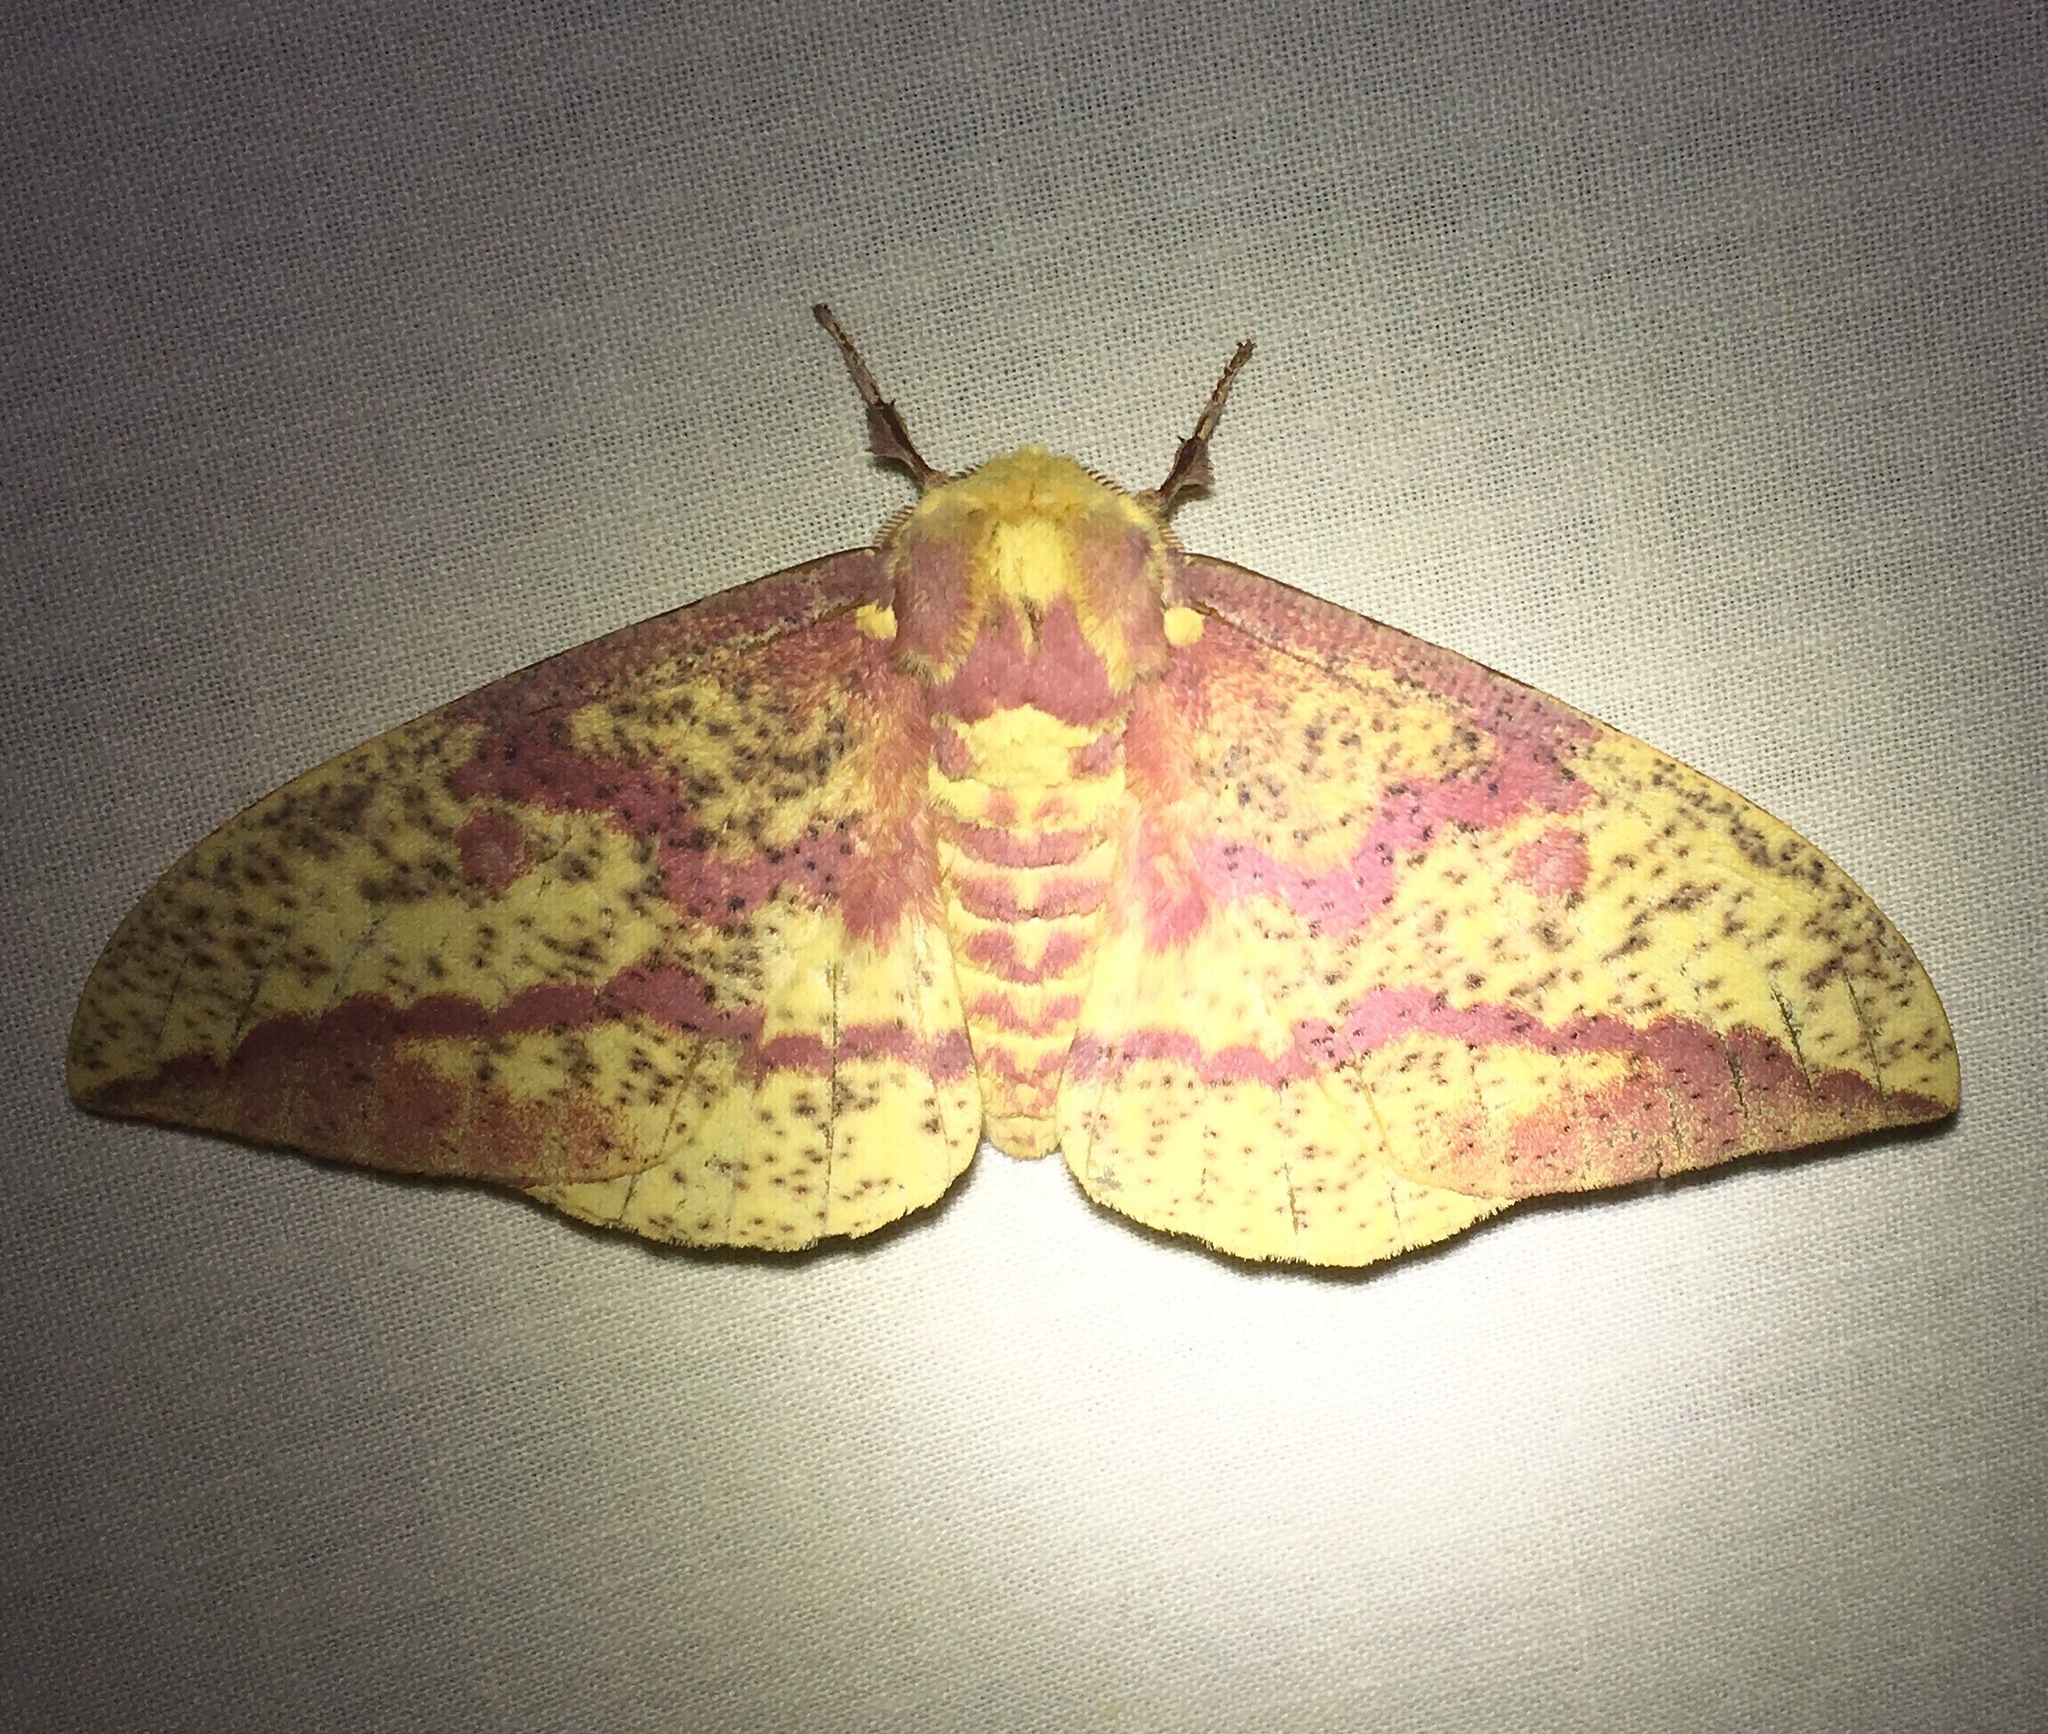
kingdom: Animalia
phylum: Arthropoda
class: Insecta
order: Lepidoptera
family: Saturniidae
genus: Eacles
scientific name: Eacles
